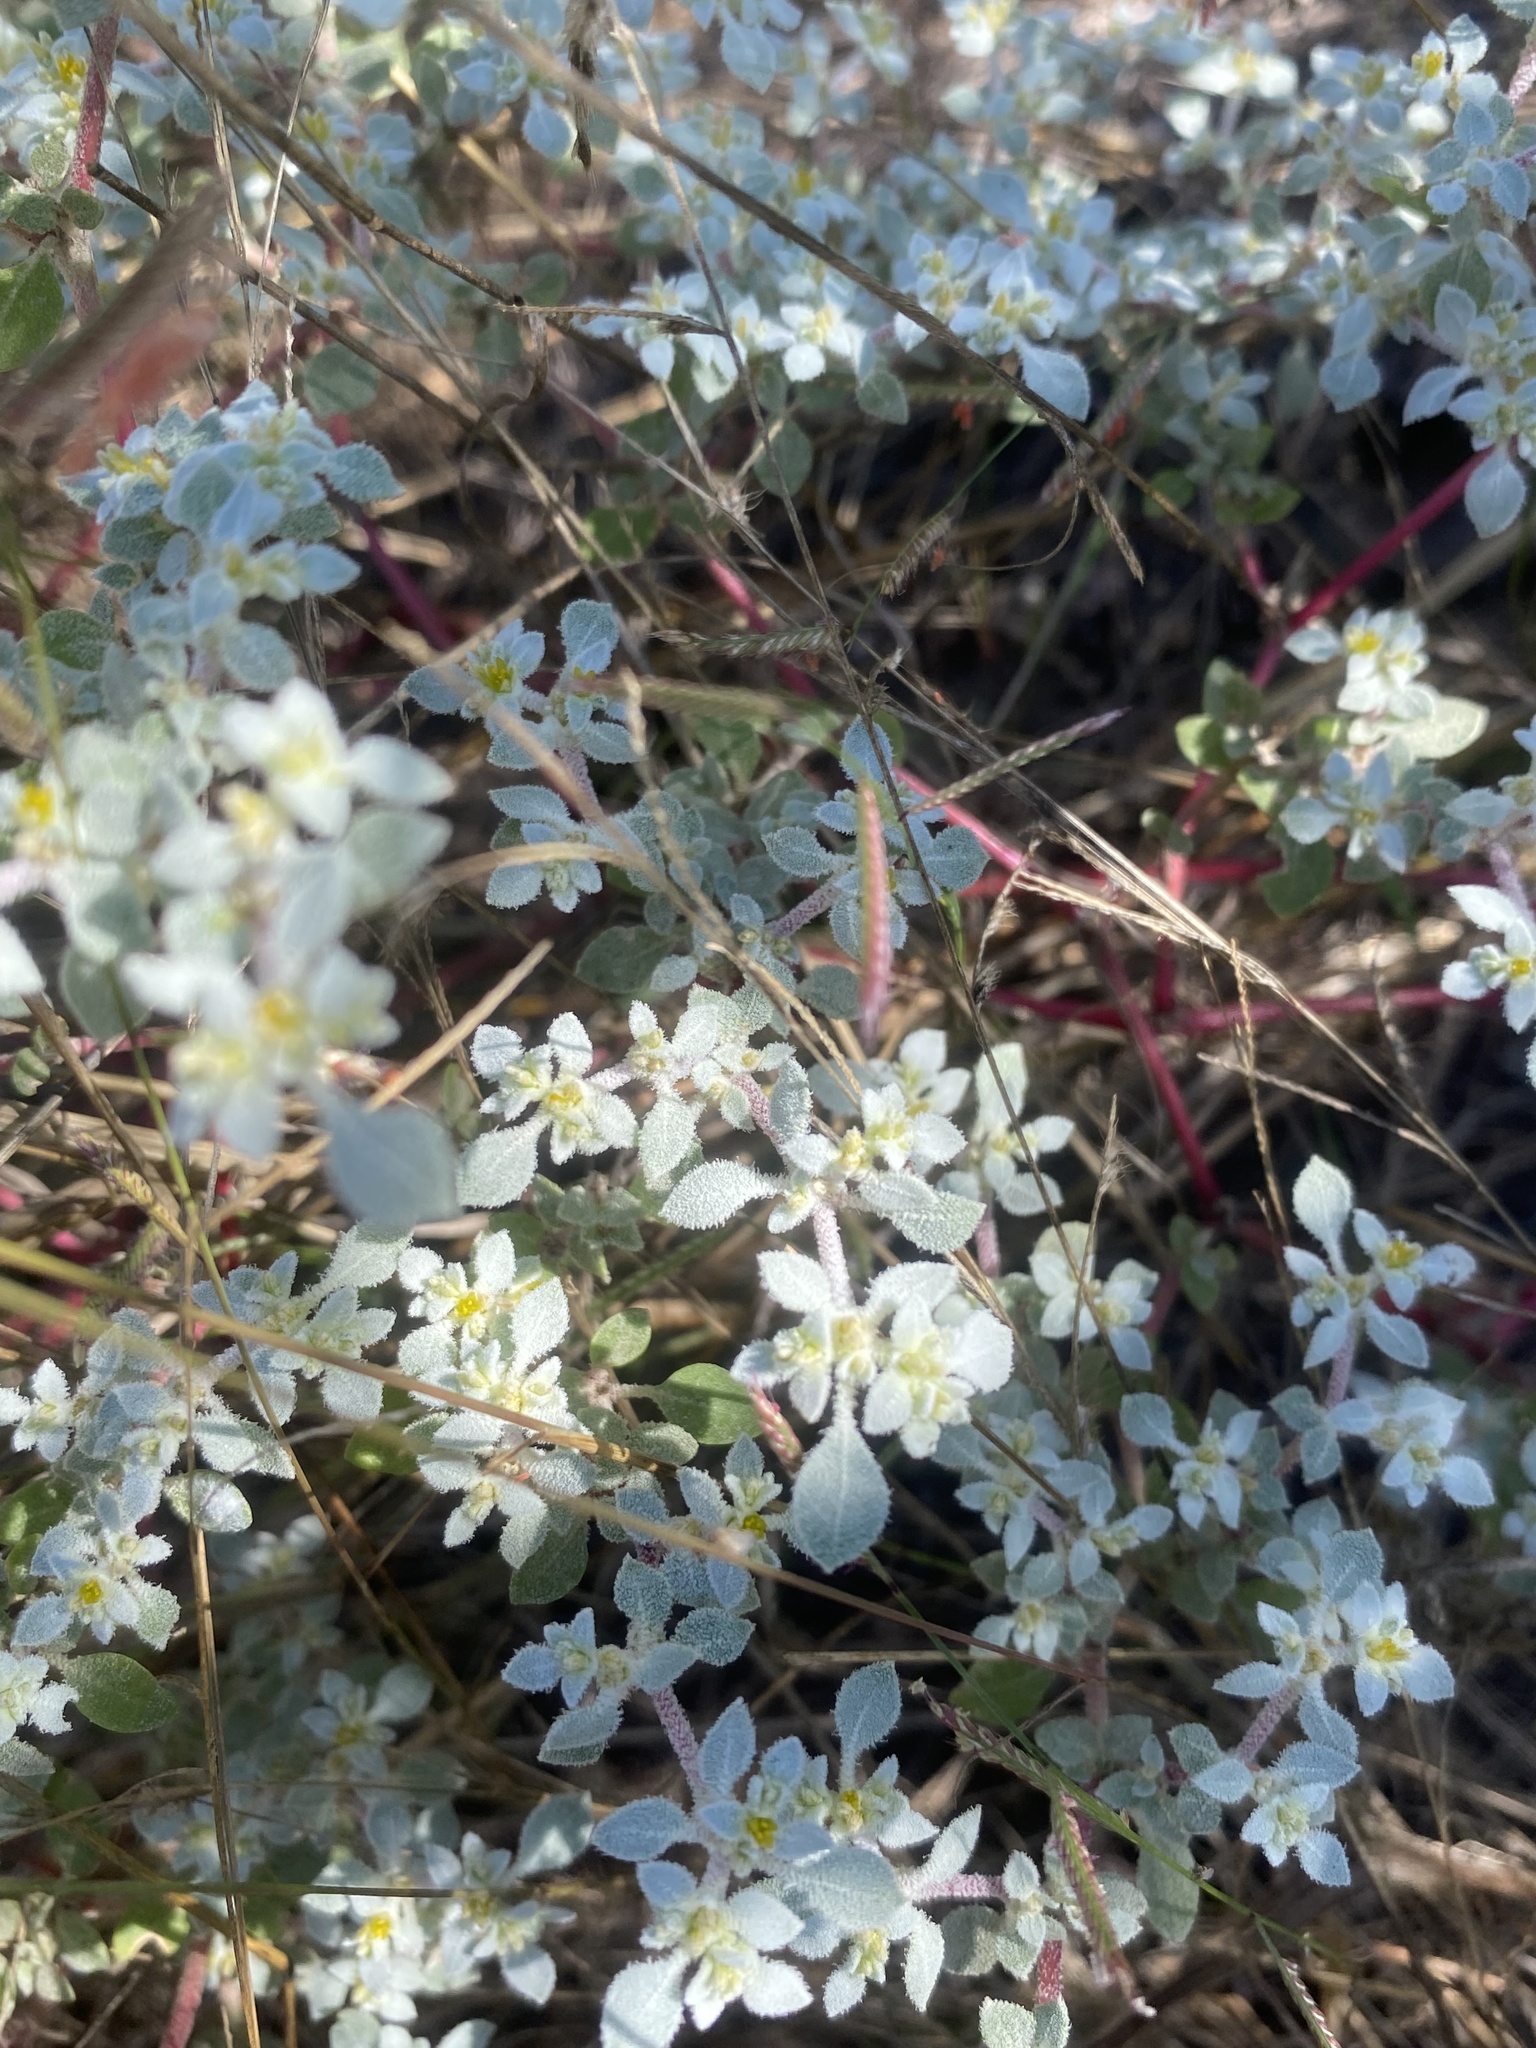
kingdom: Plantae
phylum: Tracheophyta
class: Magnoliopsida
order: Caryophyllales
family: Amaranthaceae
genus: Tidestromia
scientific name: Tidestromia lanuginosa
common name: Woolly tidestromia
